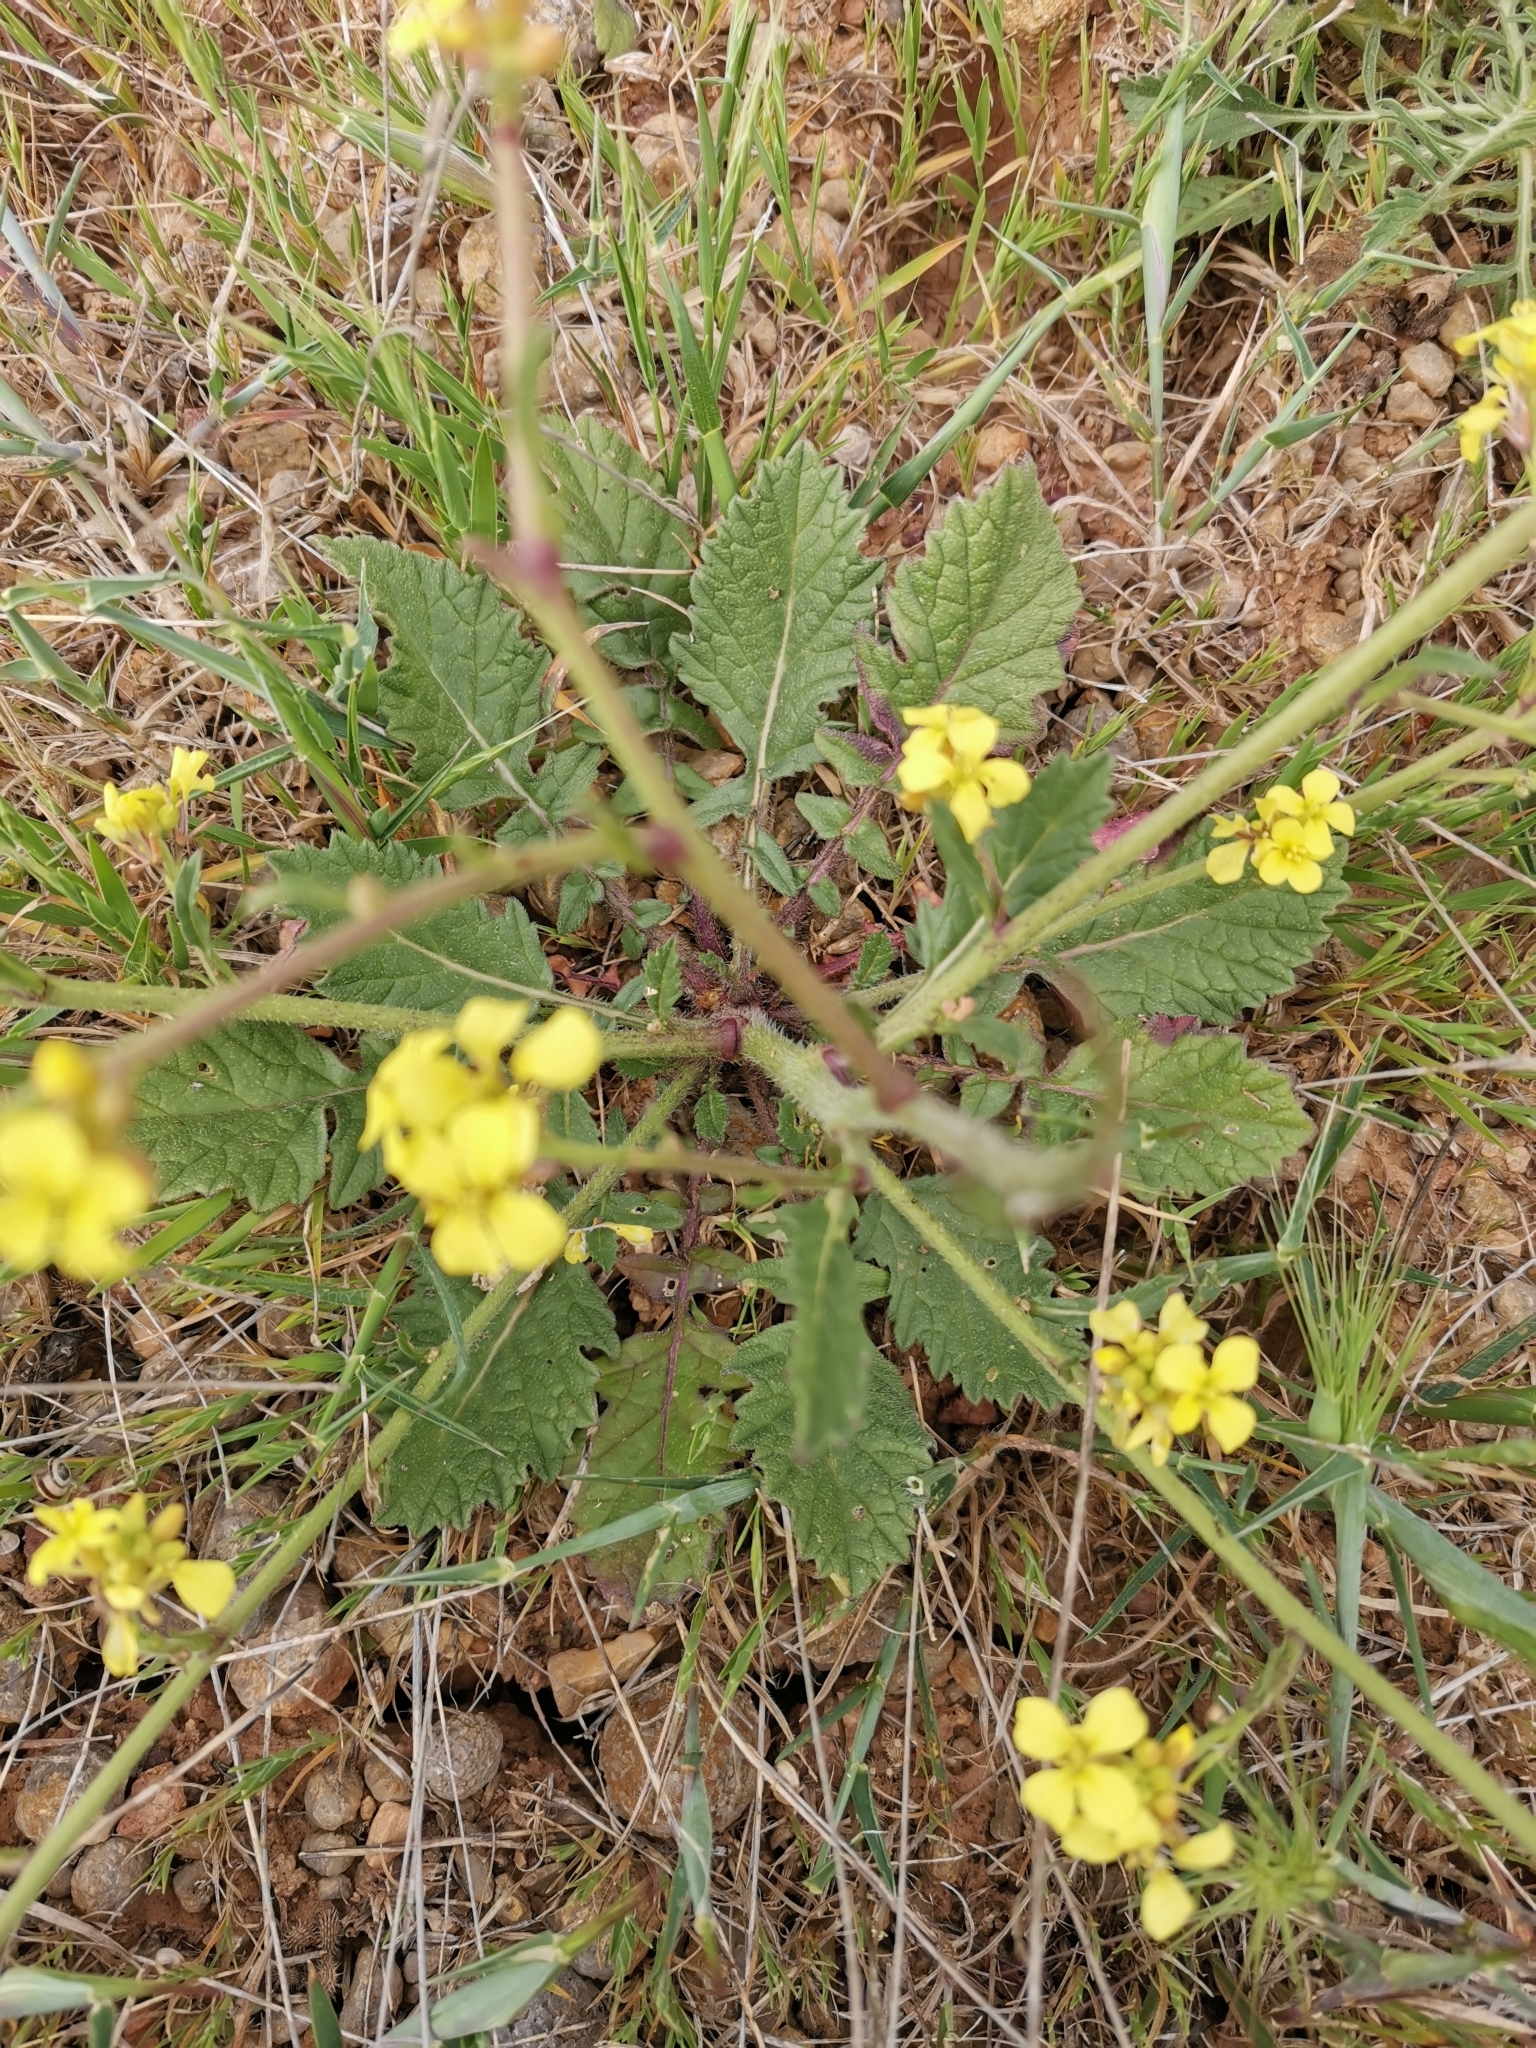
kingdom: Plantae
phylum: Tracheophyta
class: Magnoliopsida
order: Brassicales
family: Brassicaceae
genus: Rapistrum
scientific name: Rapistrum rugosum
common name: Annual bastardcabbage
